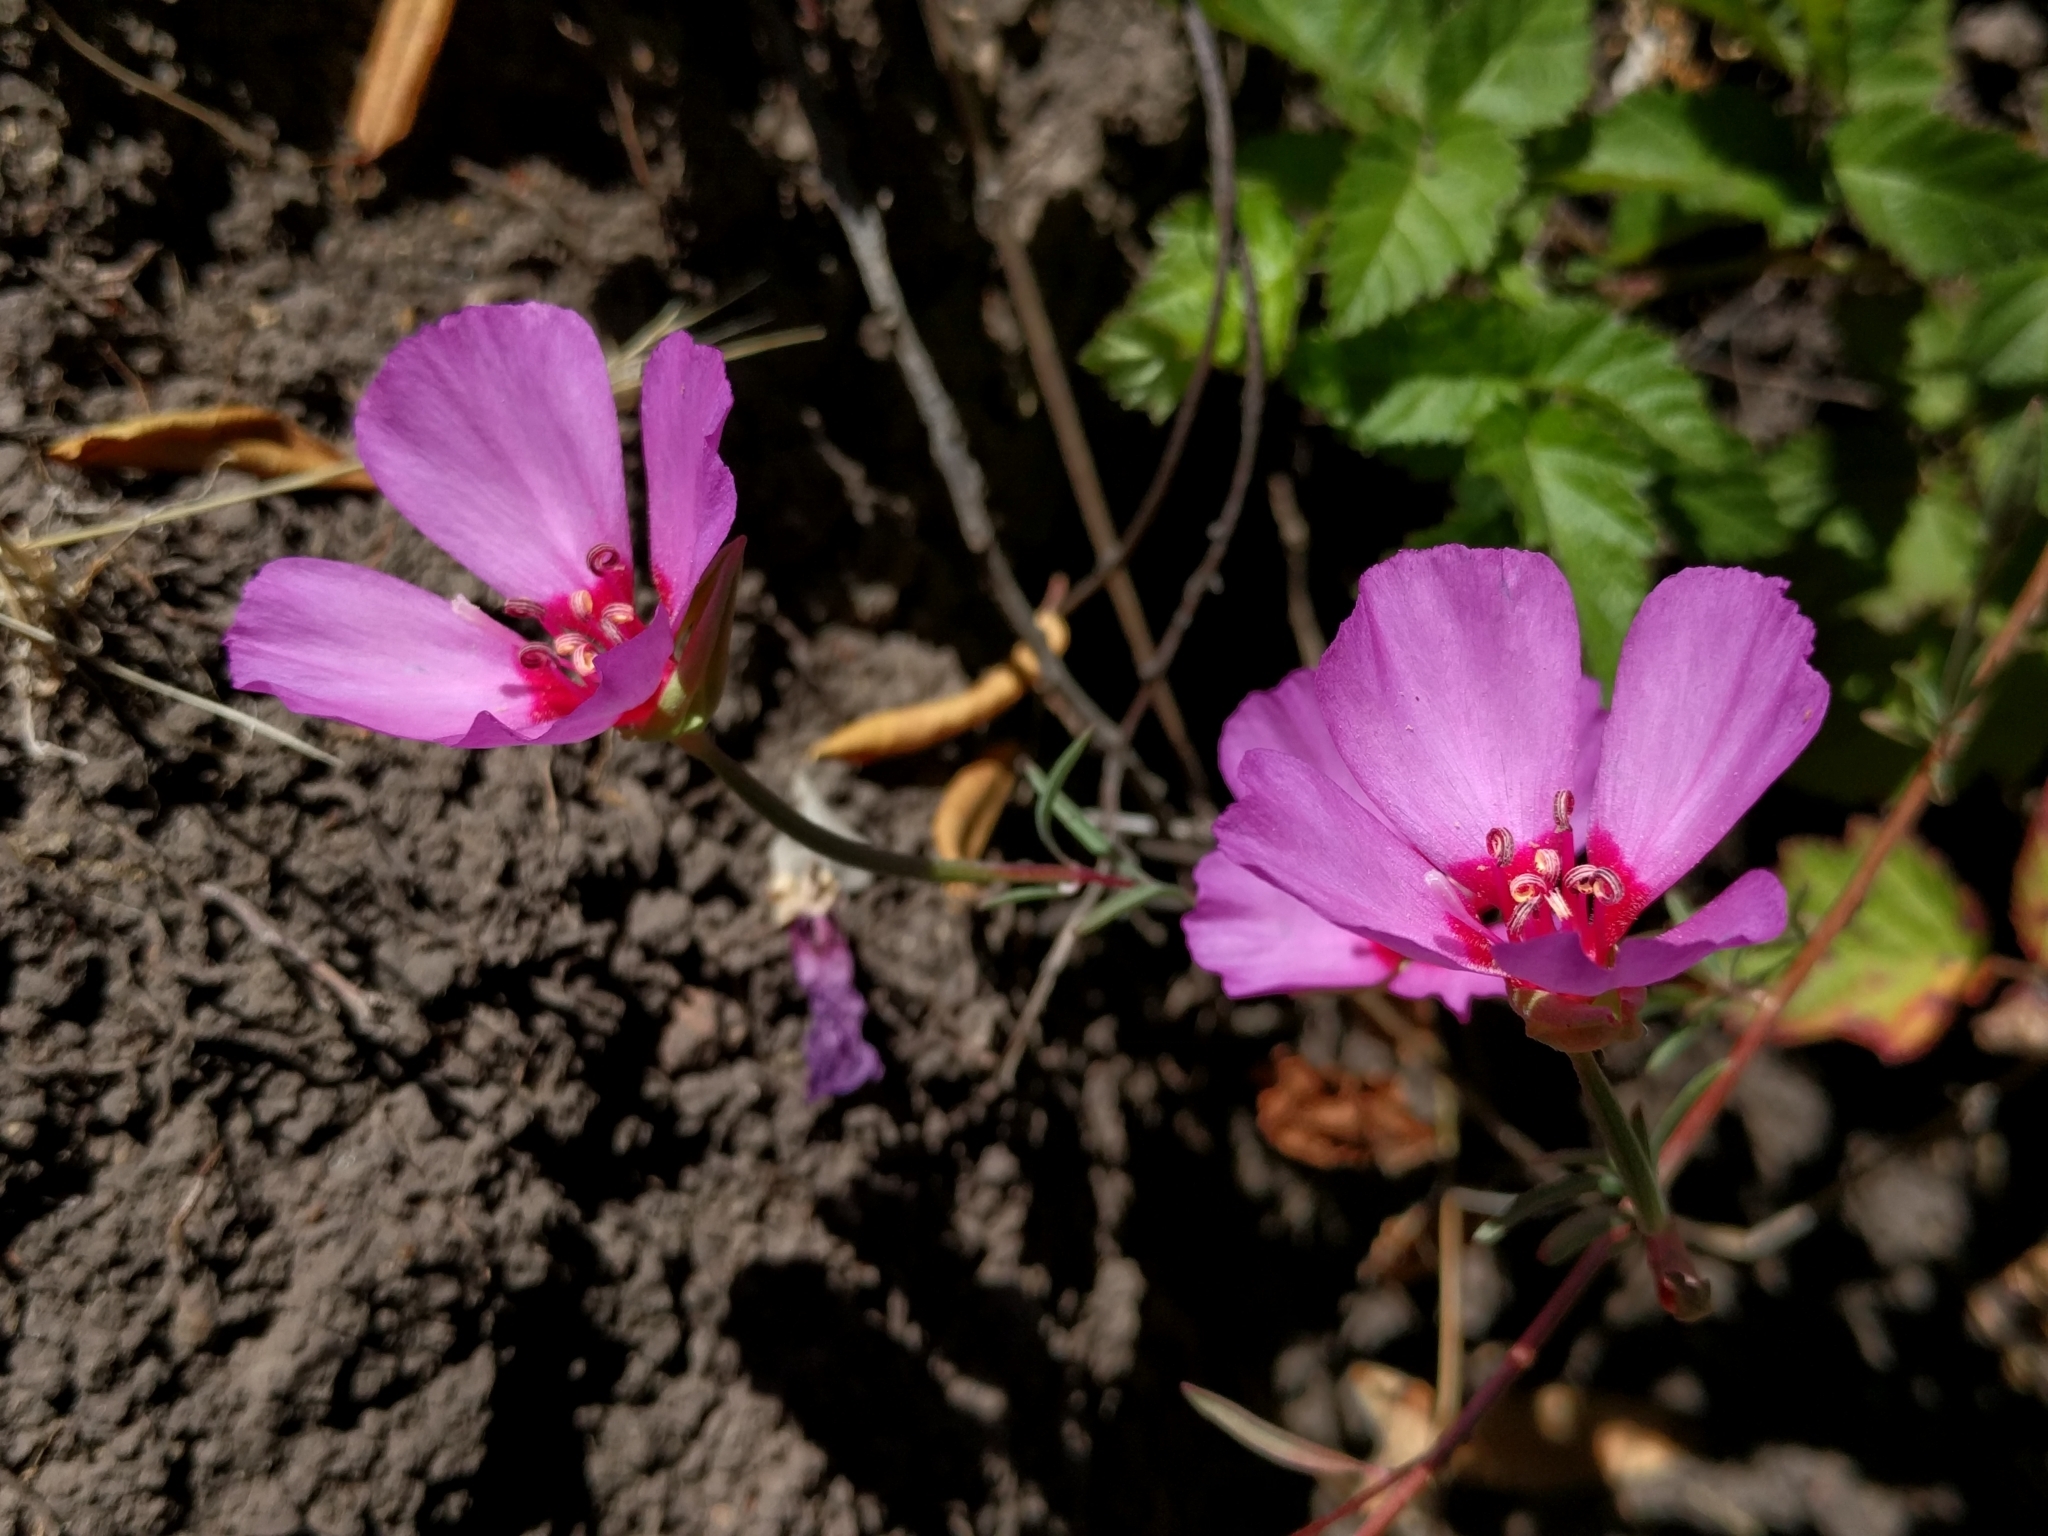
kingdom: Plantae
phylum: Tracheophyta
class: Magnoliopsida
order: Myrtales
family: Onagraceae
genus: Clarkia
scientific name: Clarkia rubicunda
